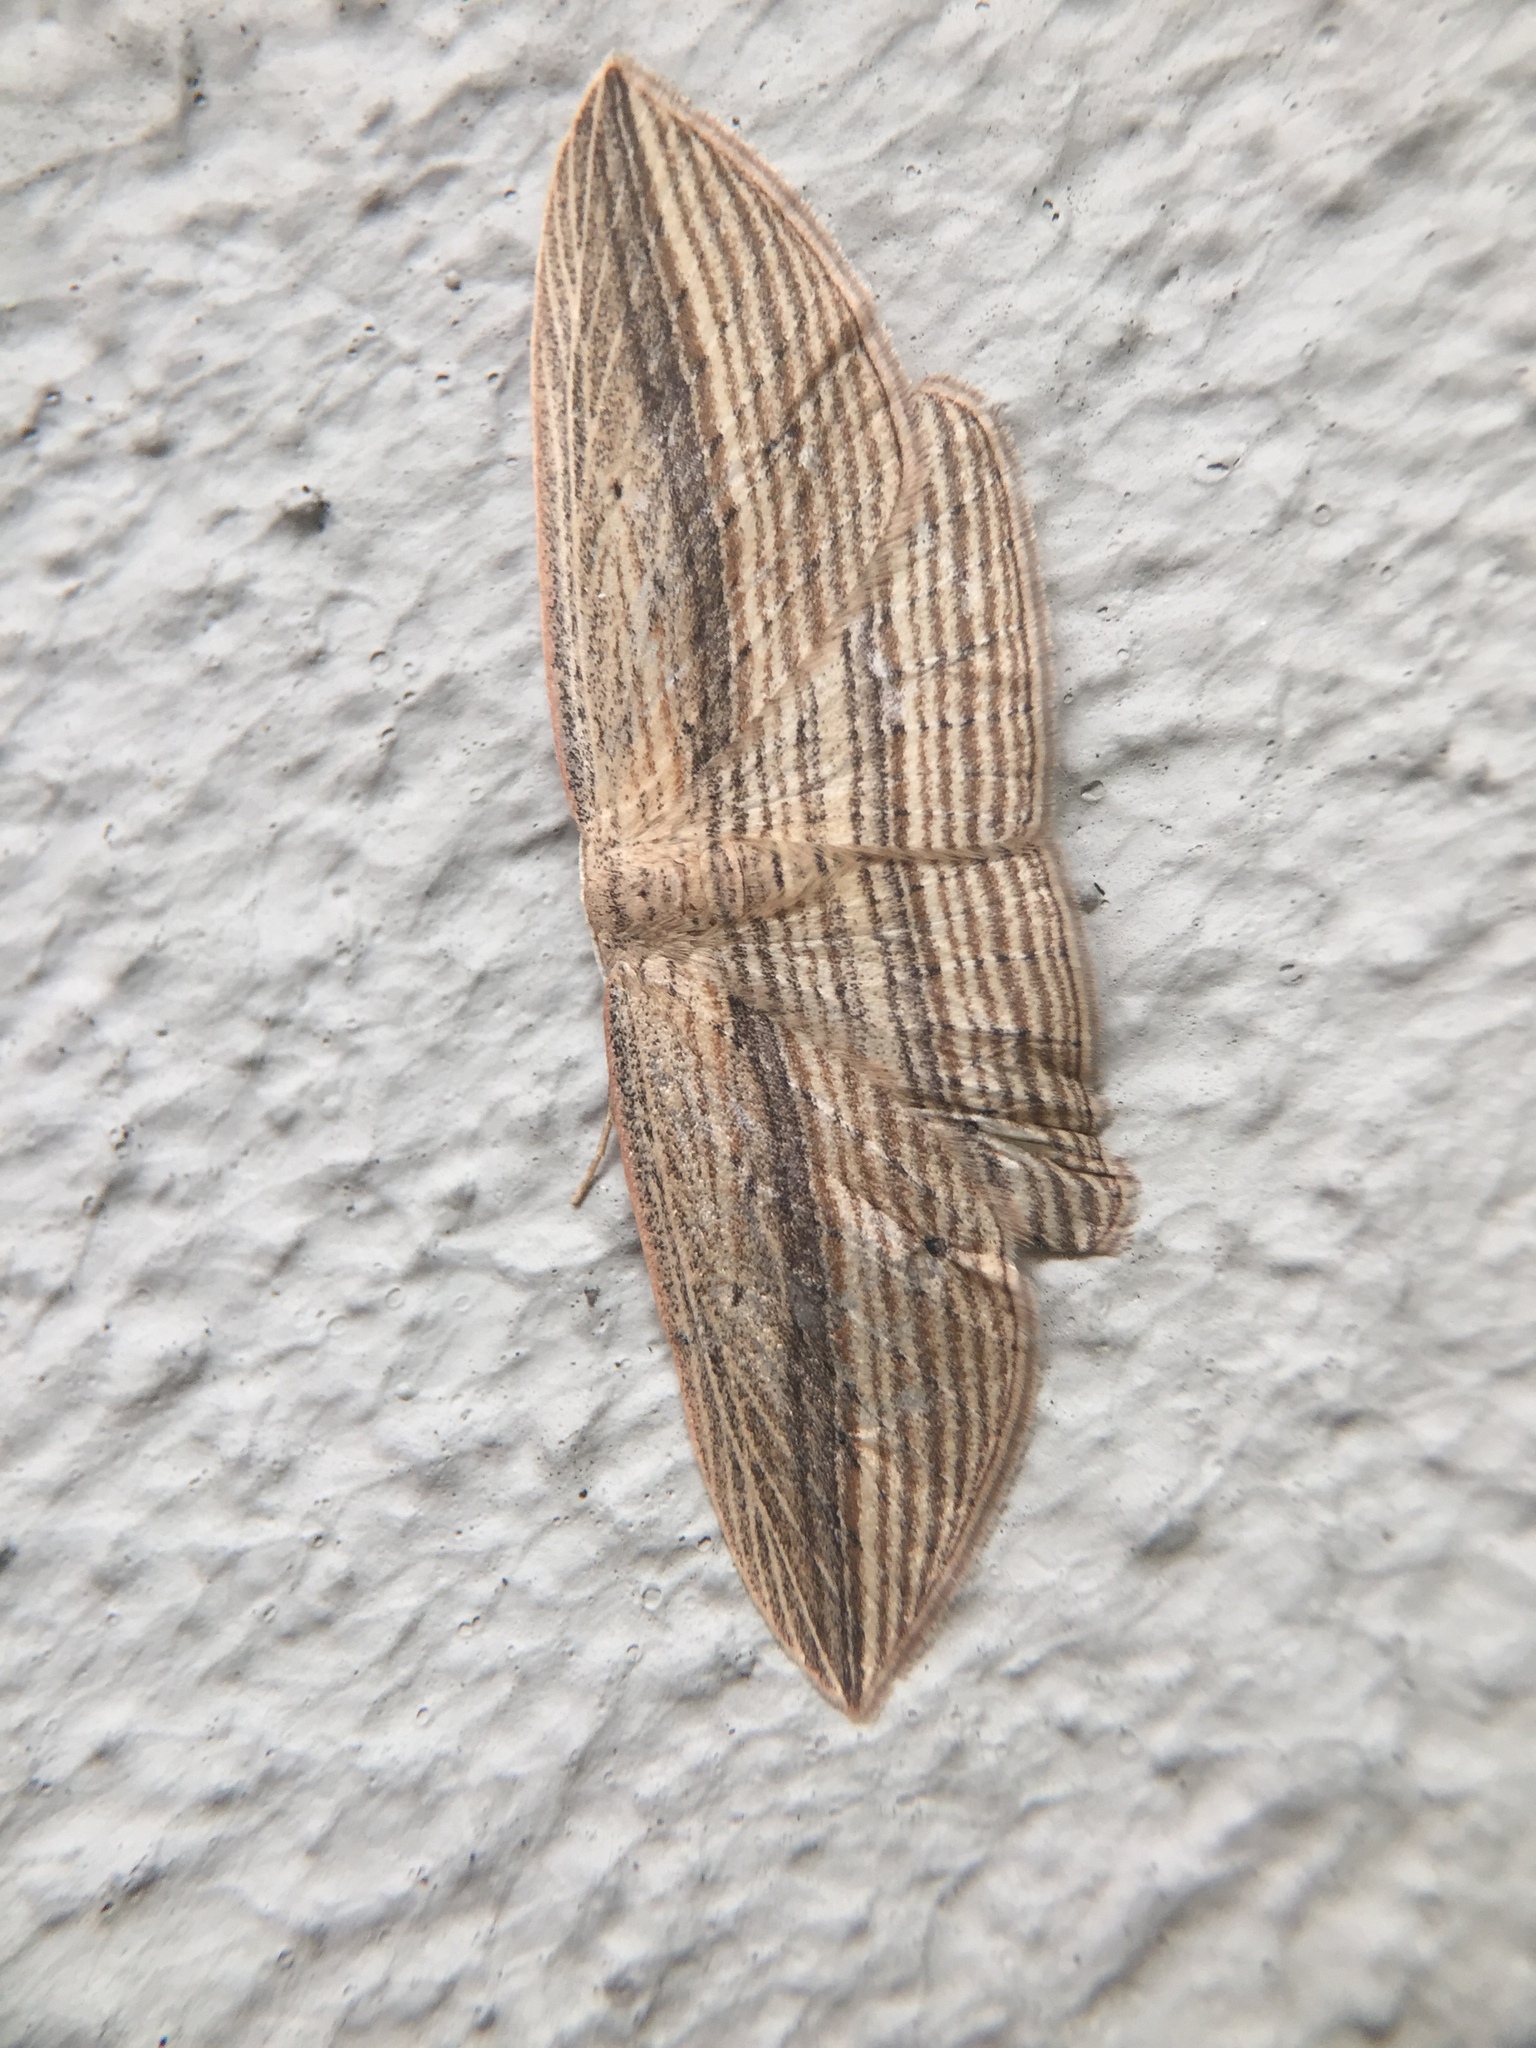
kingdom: Animalia
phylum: Arthropoda
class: Insecta
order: Lepidoptera
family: Geometridae
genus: Epiphryne
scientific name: Epiphryne verriculata
